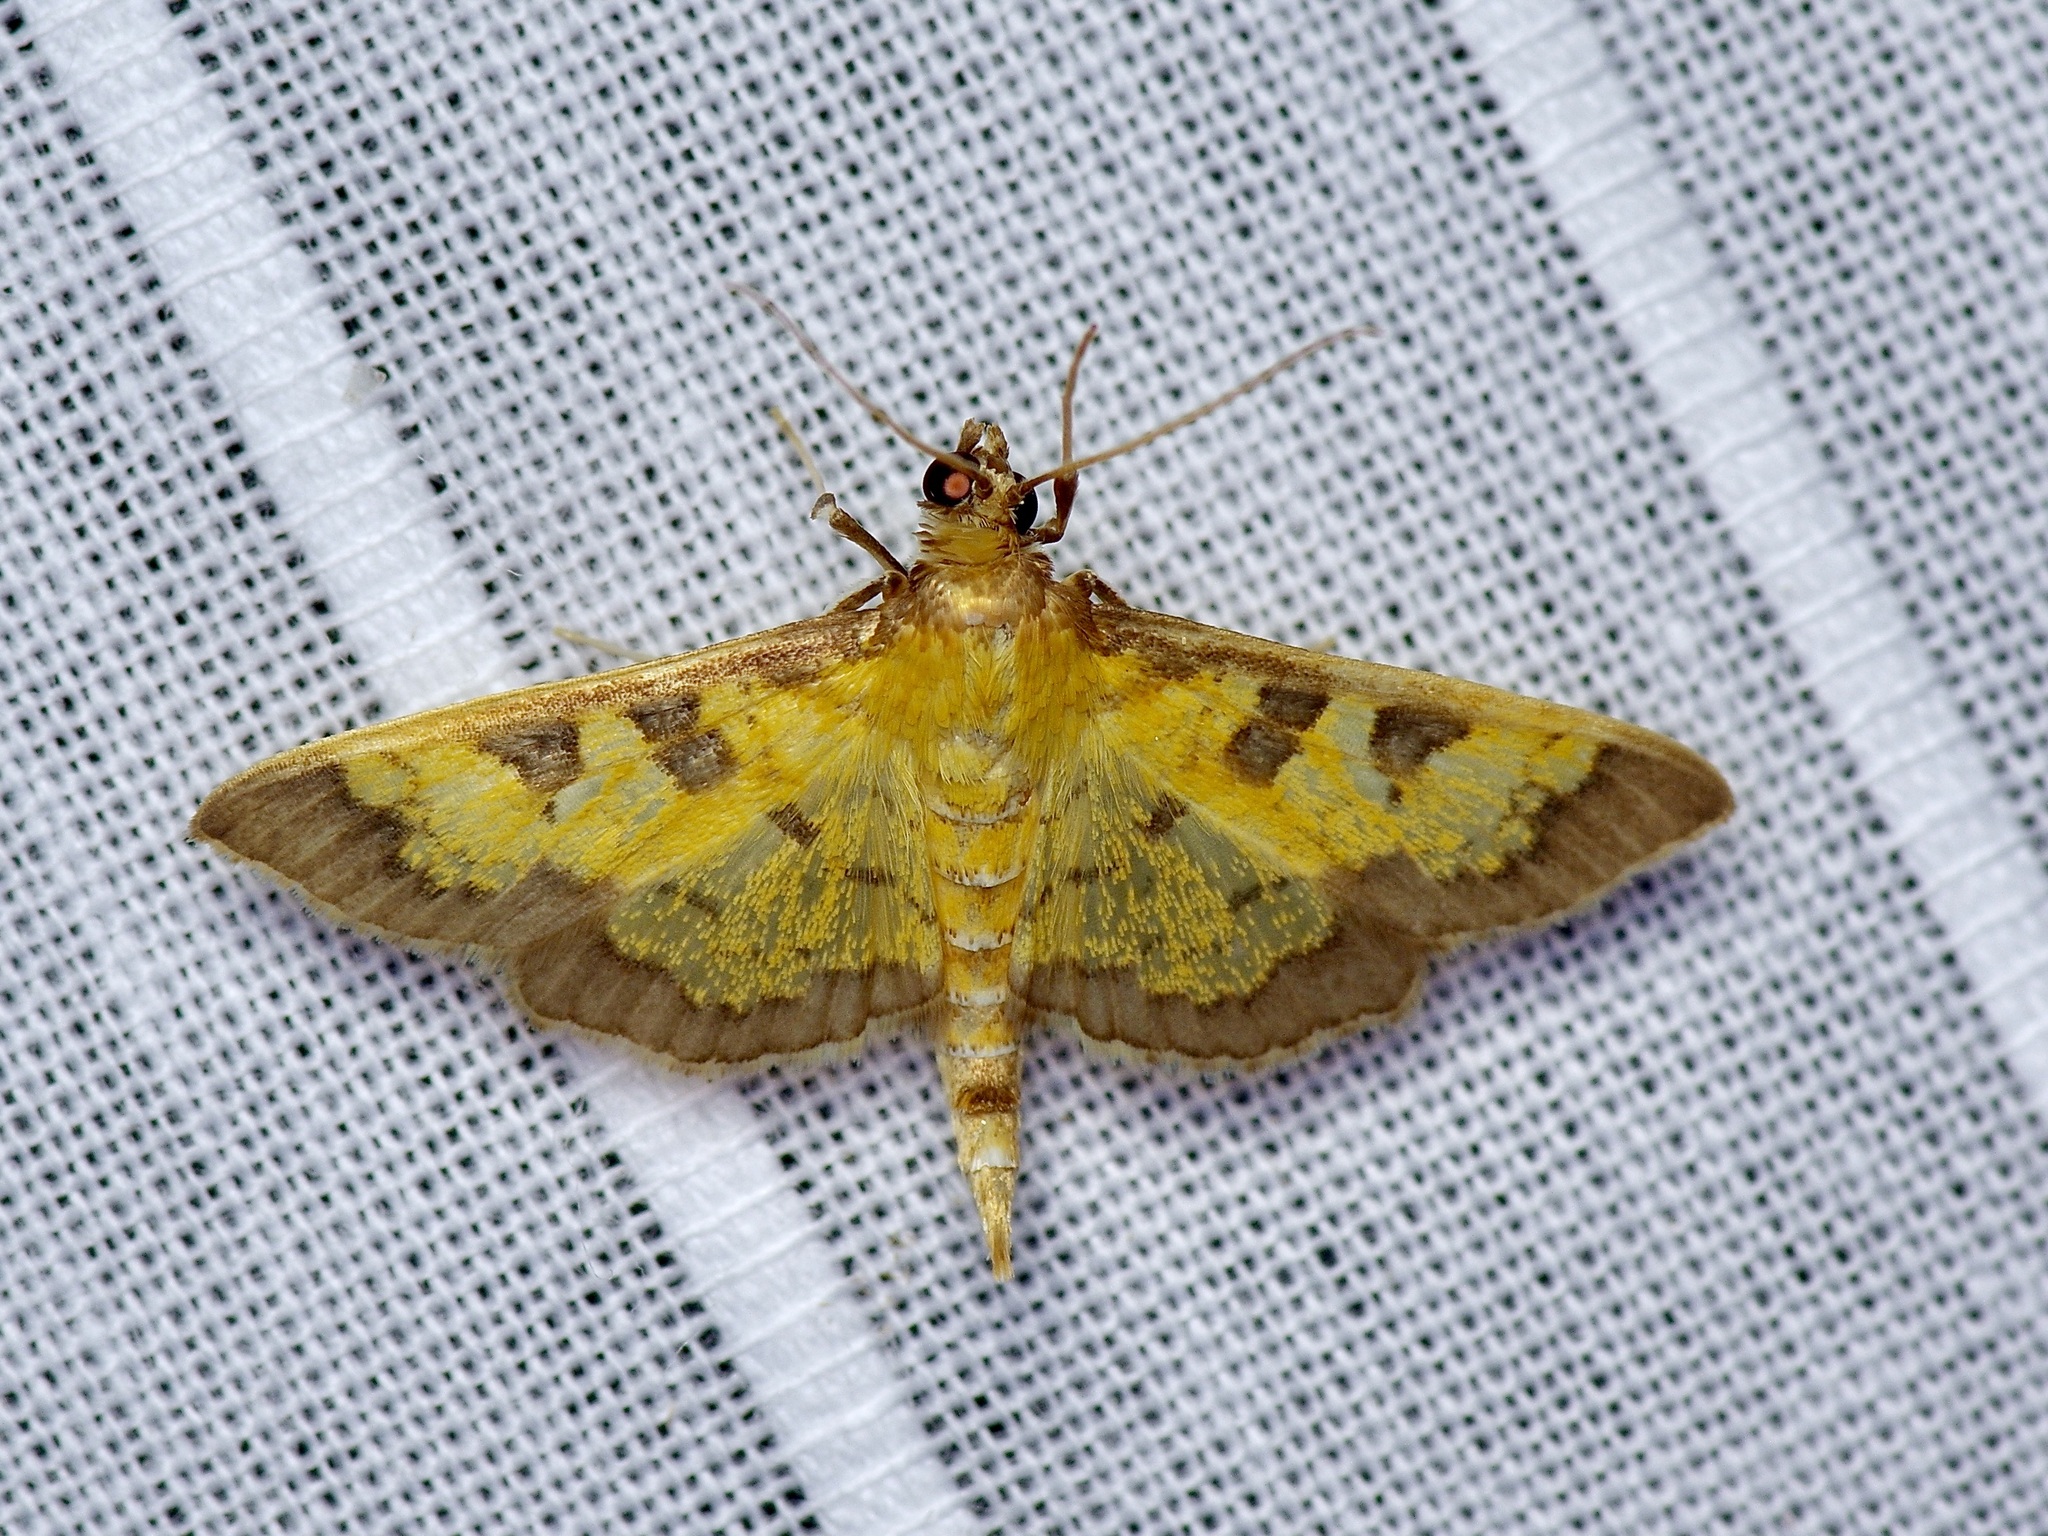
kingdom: Animalia
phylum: Arthropoda
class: Insecta
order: Lepidoptera
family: Crambidae
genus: Cryptographis
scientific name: Cryptographis elealis
